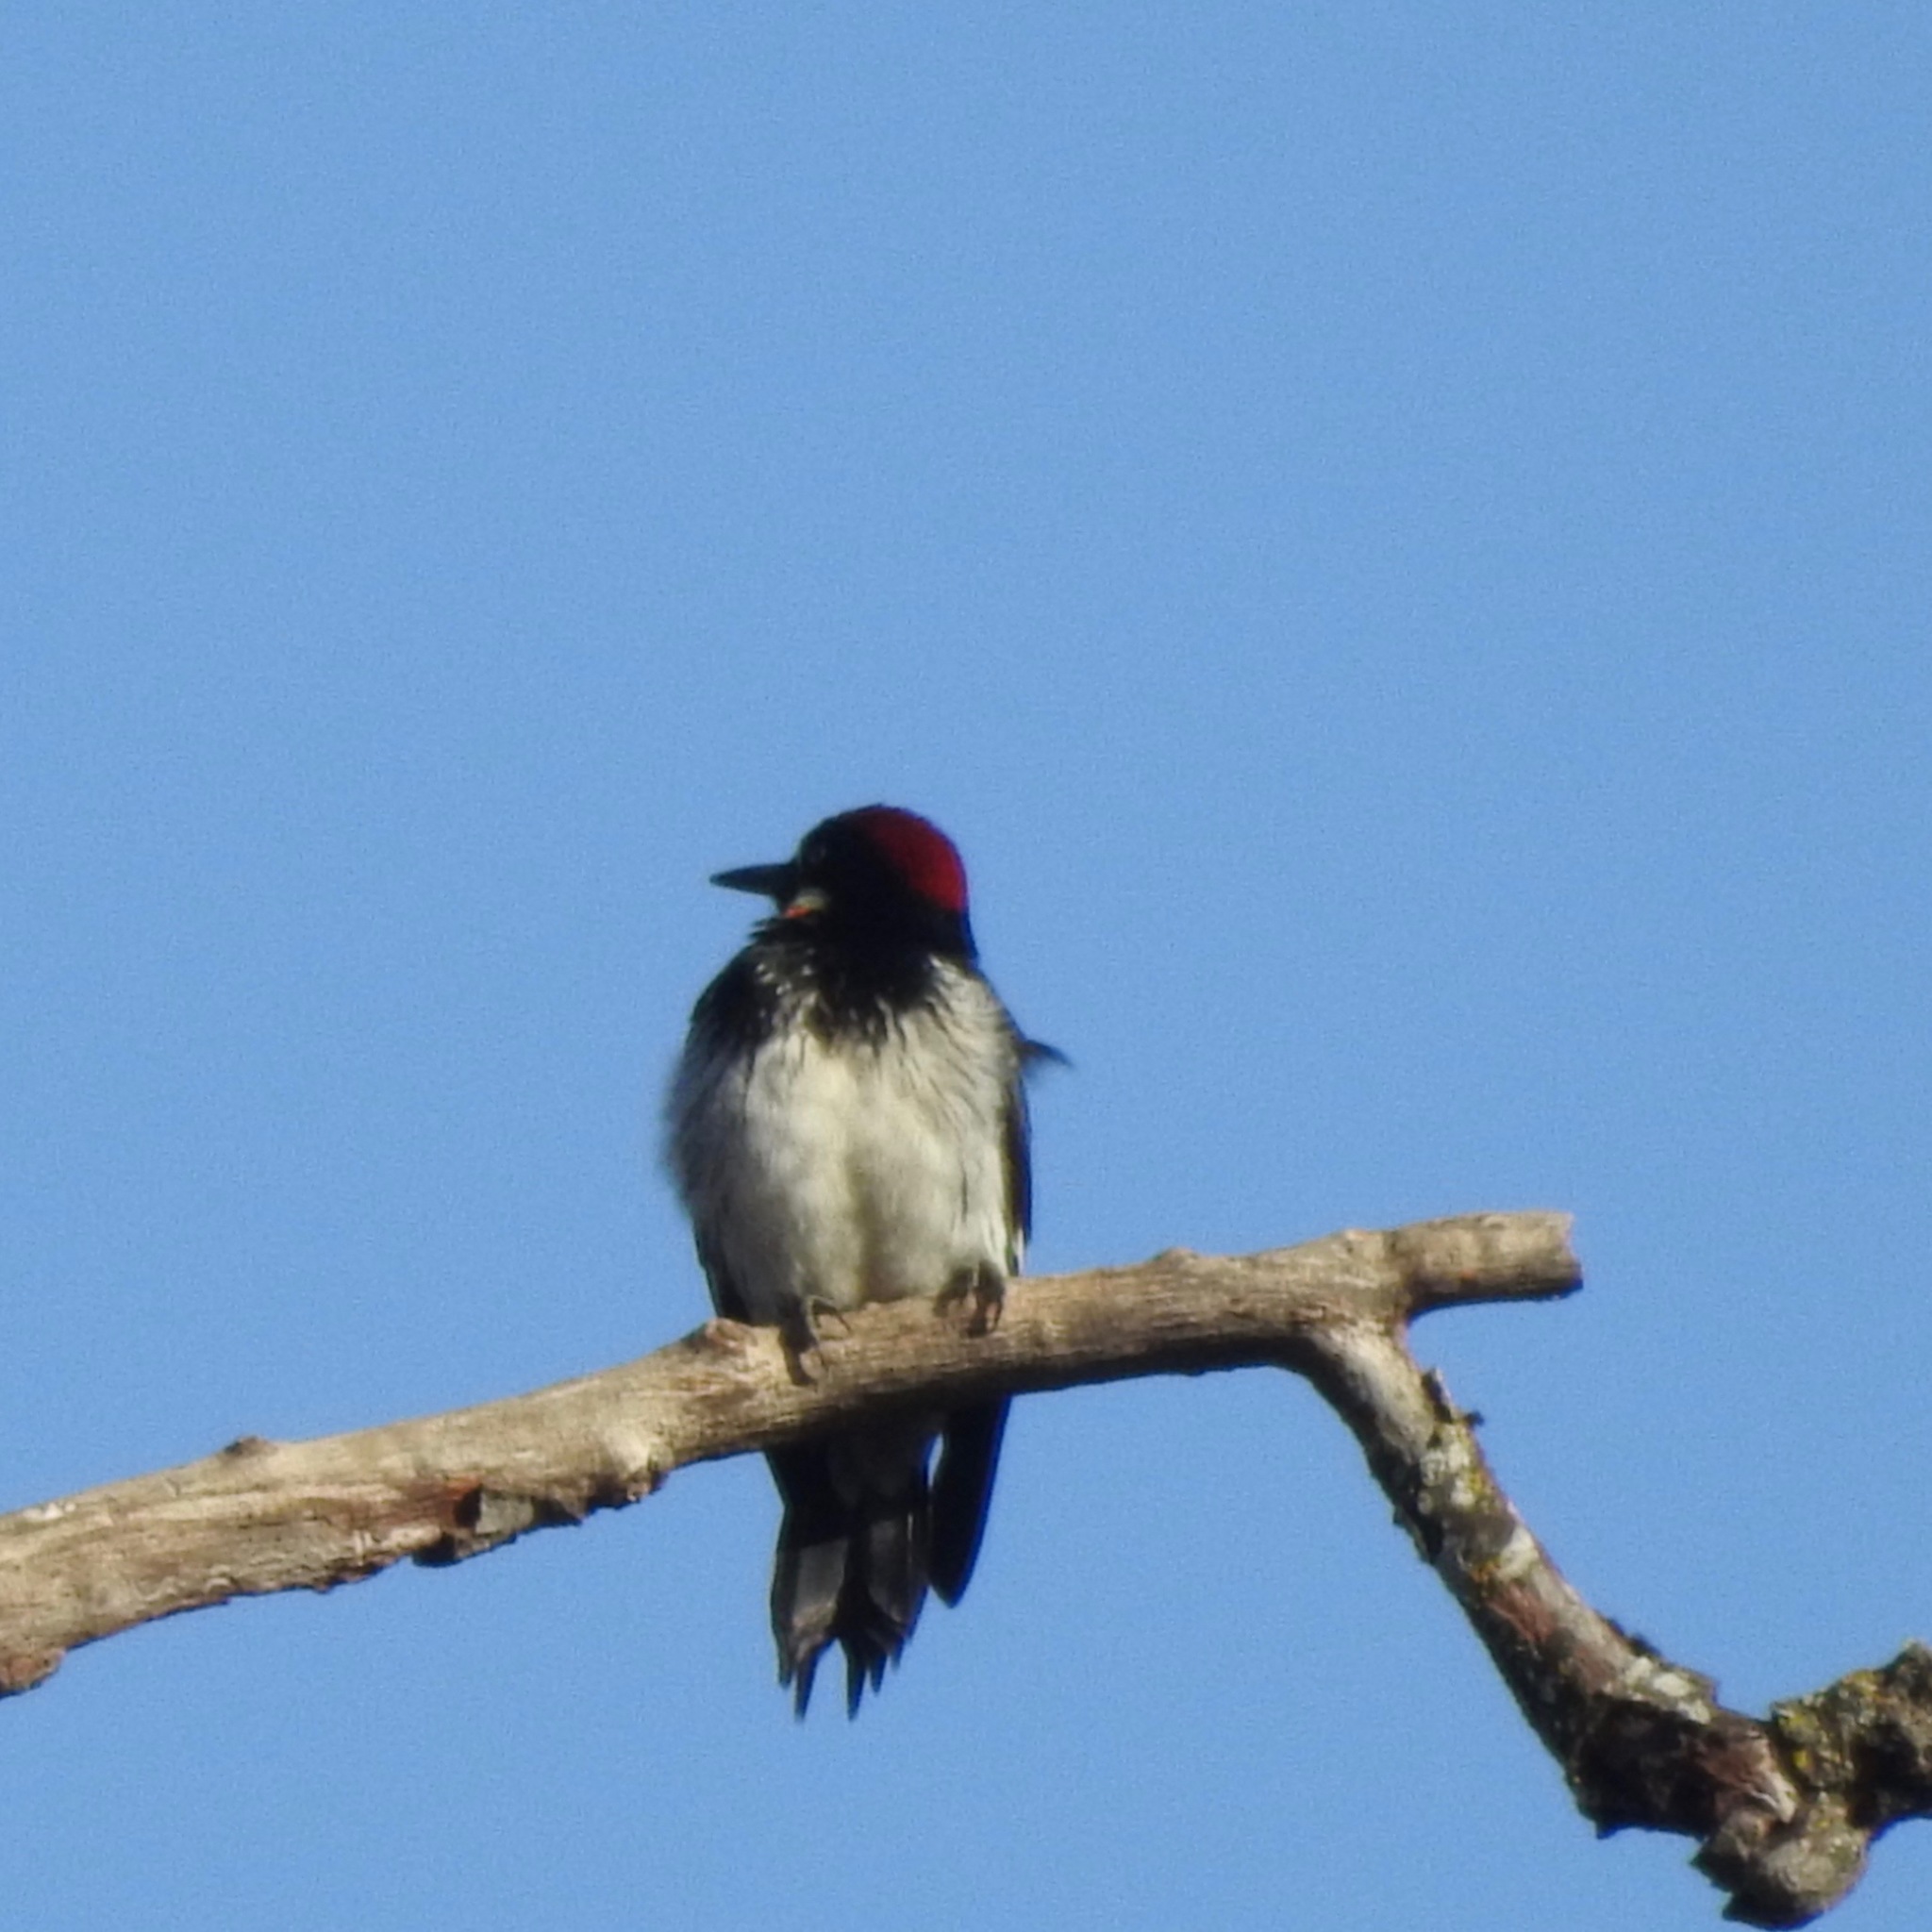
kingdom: Animalia
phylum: Chordata
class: Aves
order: Piciformes
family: Picidae
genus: Melanerpes
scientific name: Melanerpes formicivorus
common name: Acorn woodpecker
